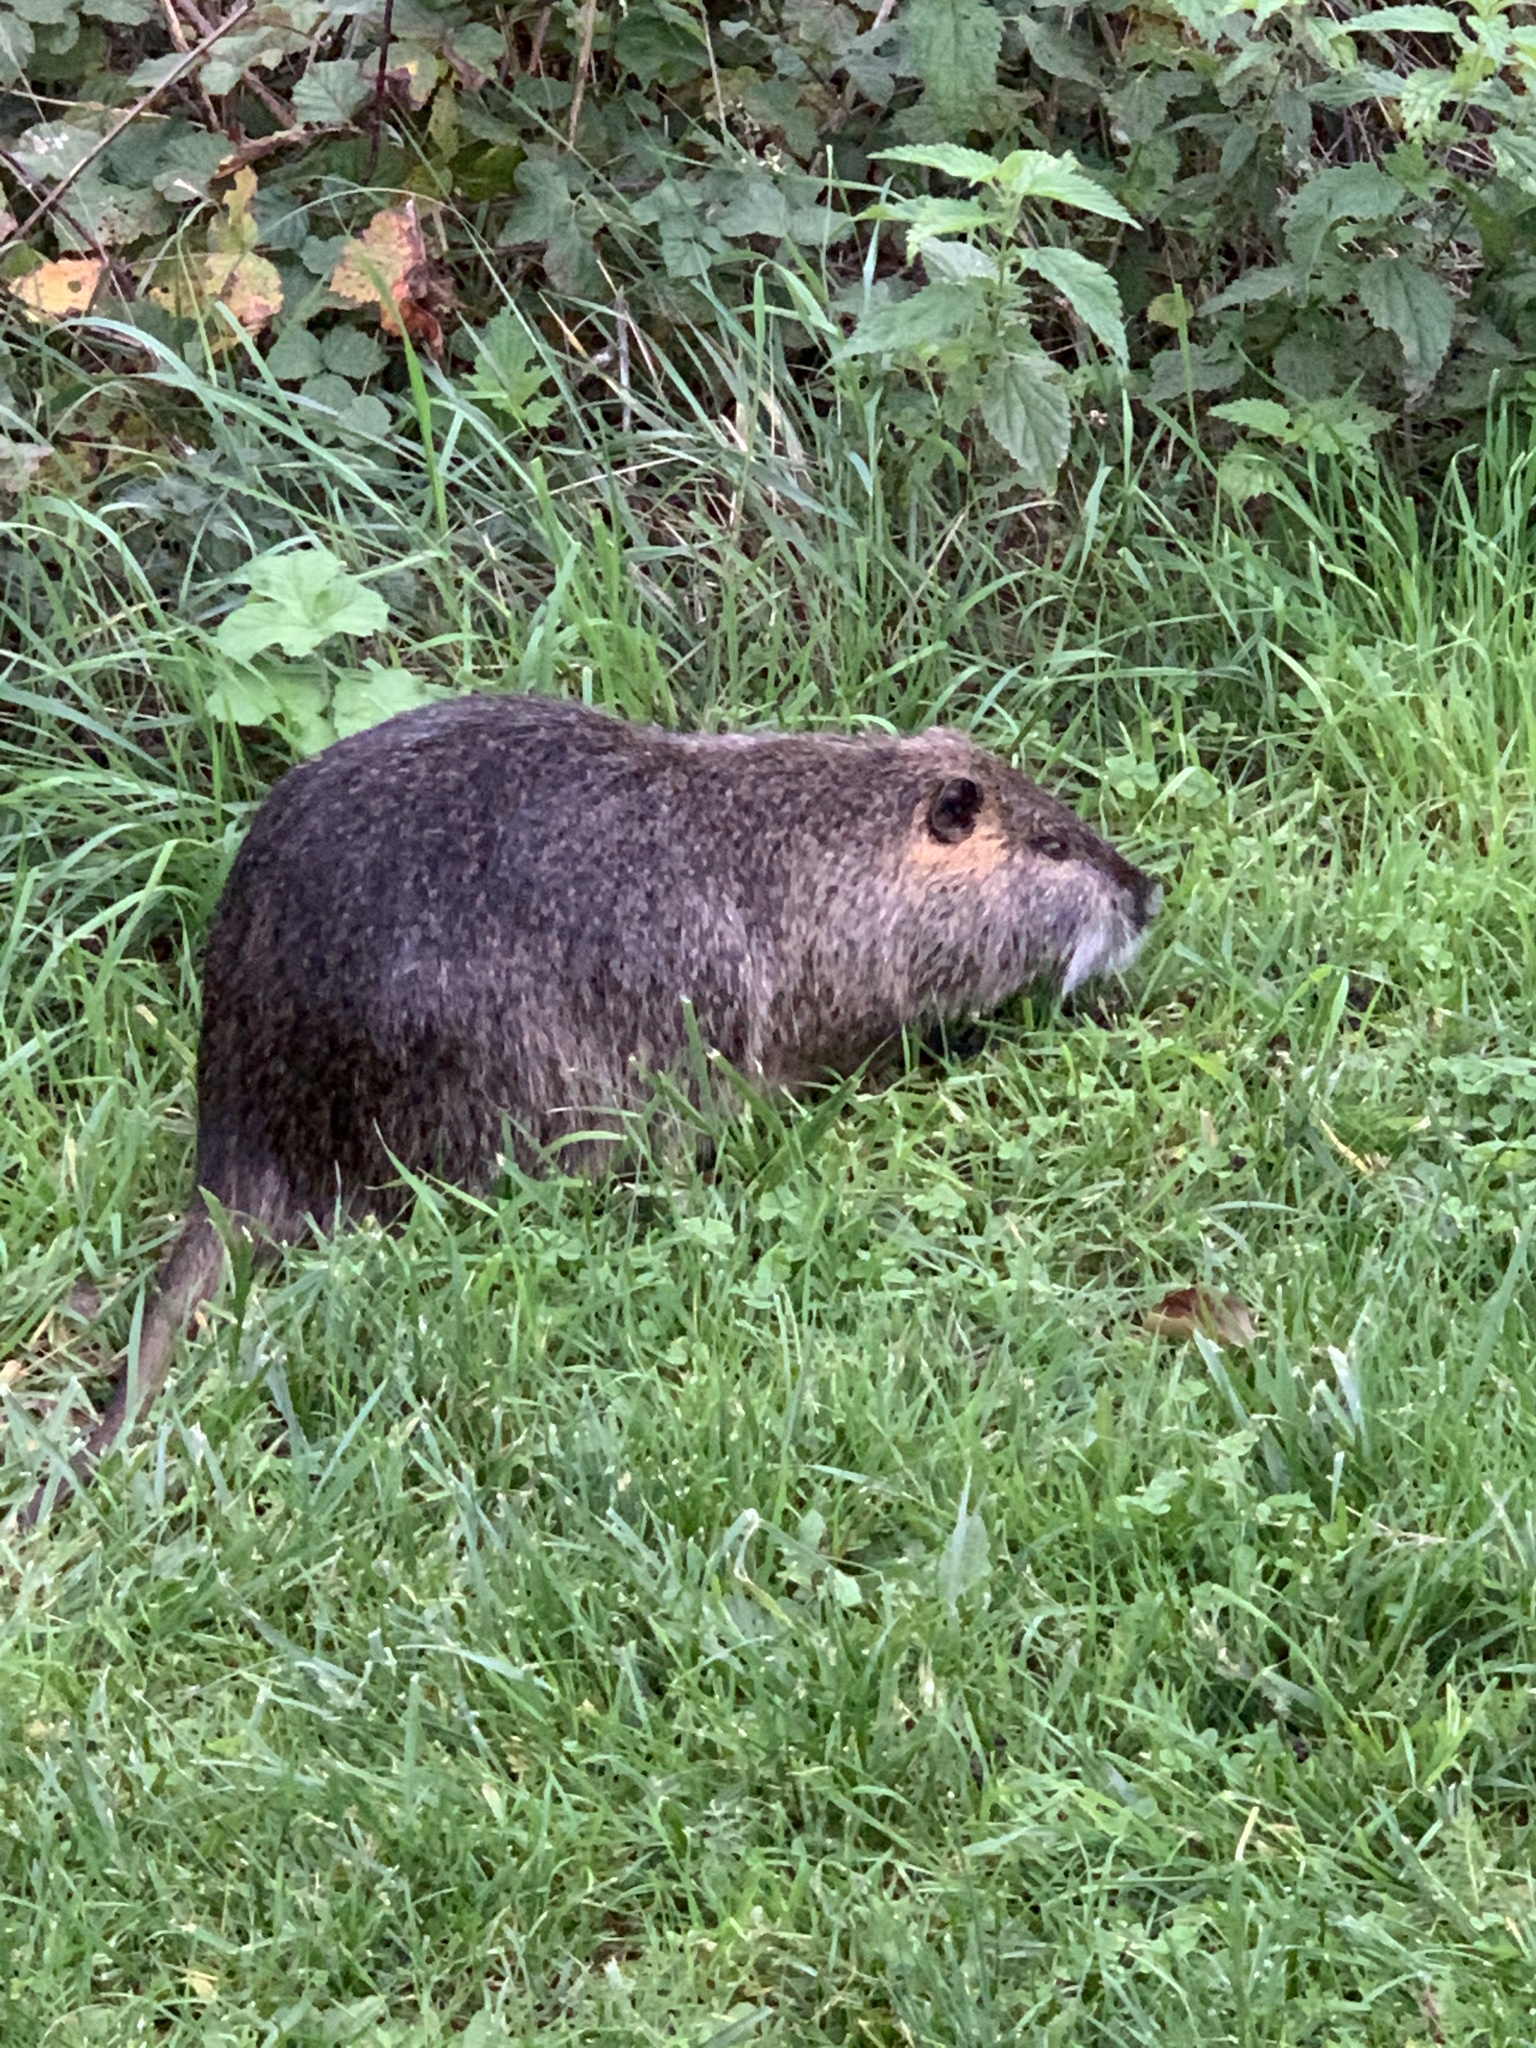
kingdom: Animalia
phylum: Chordata
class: Mammalia
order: Rodentia
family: Myocastoridae
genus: Myocastor
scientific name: Myocastor coypus
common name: Coypu
